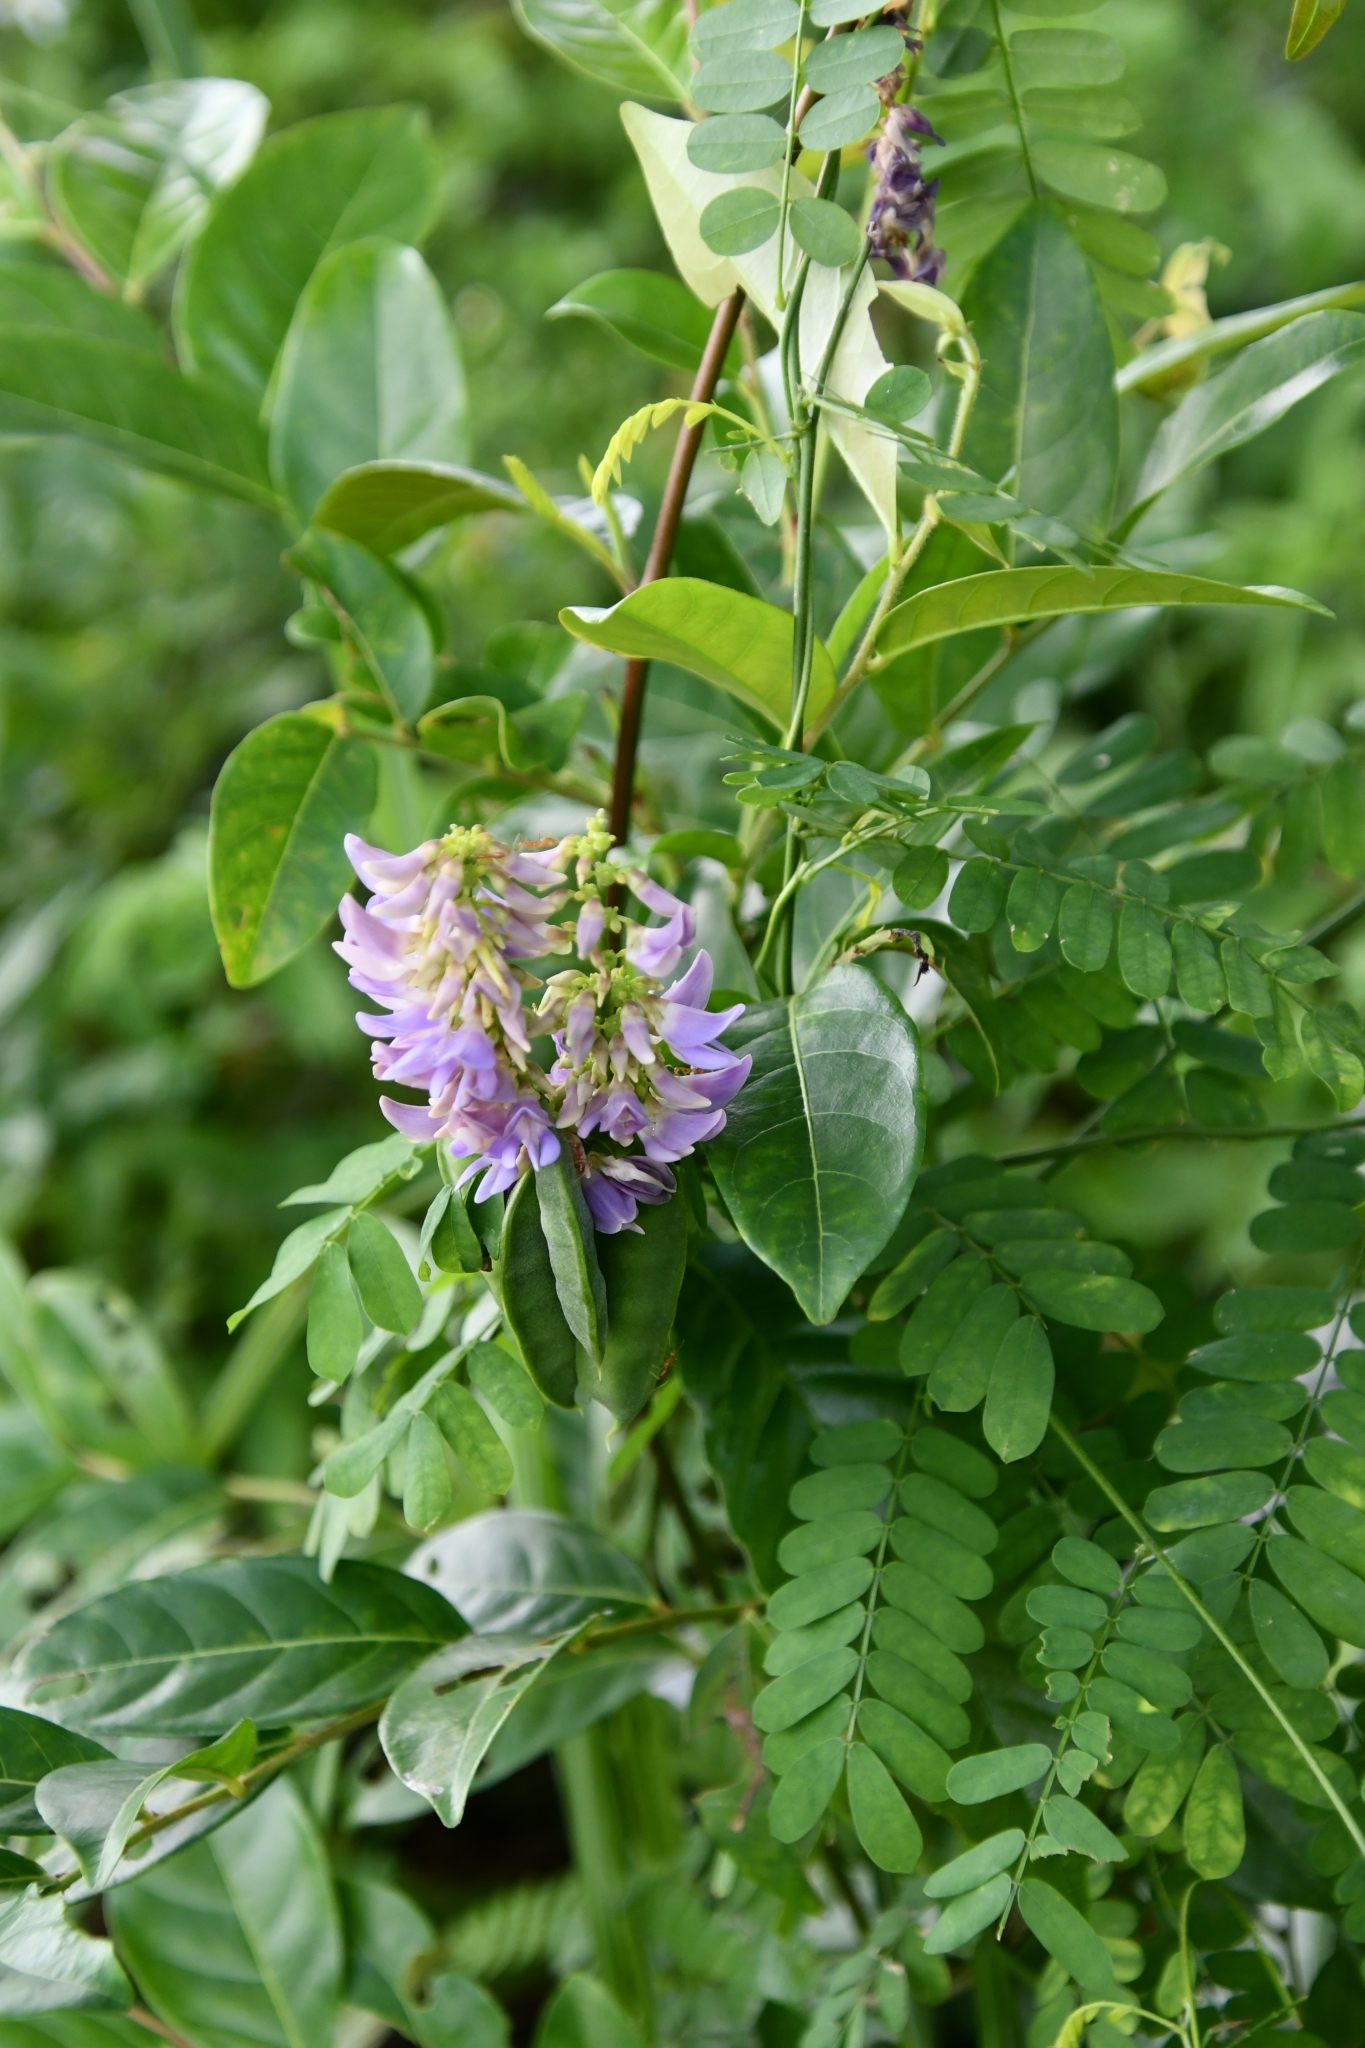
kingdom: Plantae
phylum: Tracheophyta
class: Magnoliopsida
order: Fabales
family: Fabaceae
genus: Abrus
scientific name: Abrus precatorius
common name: Rosarypea
